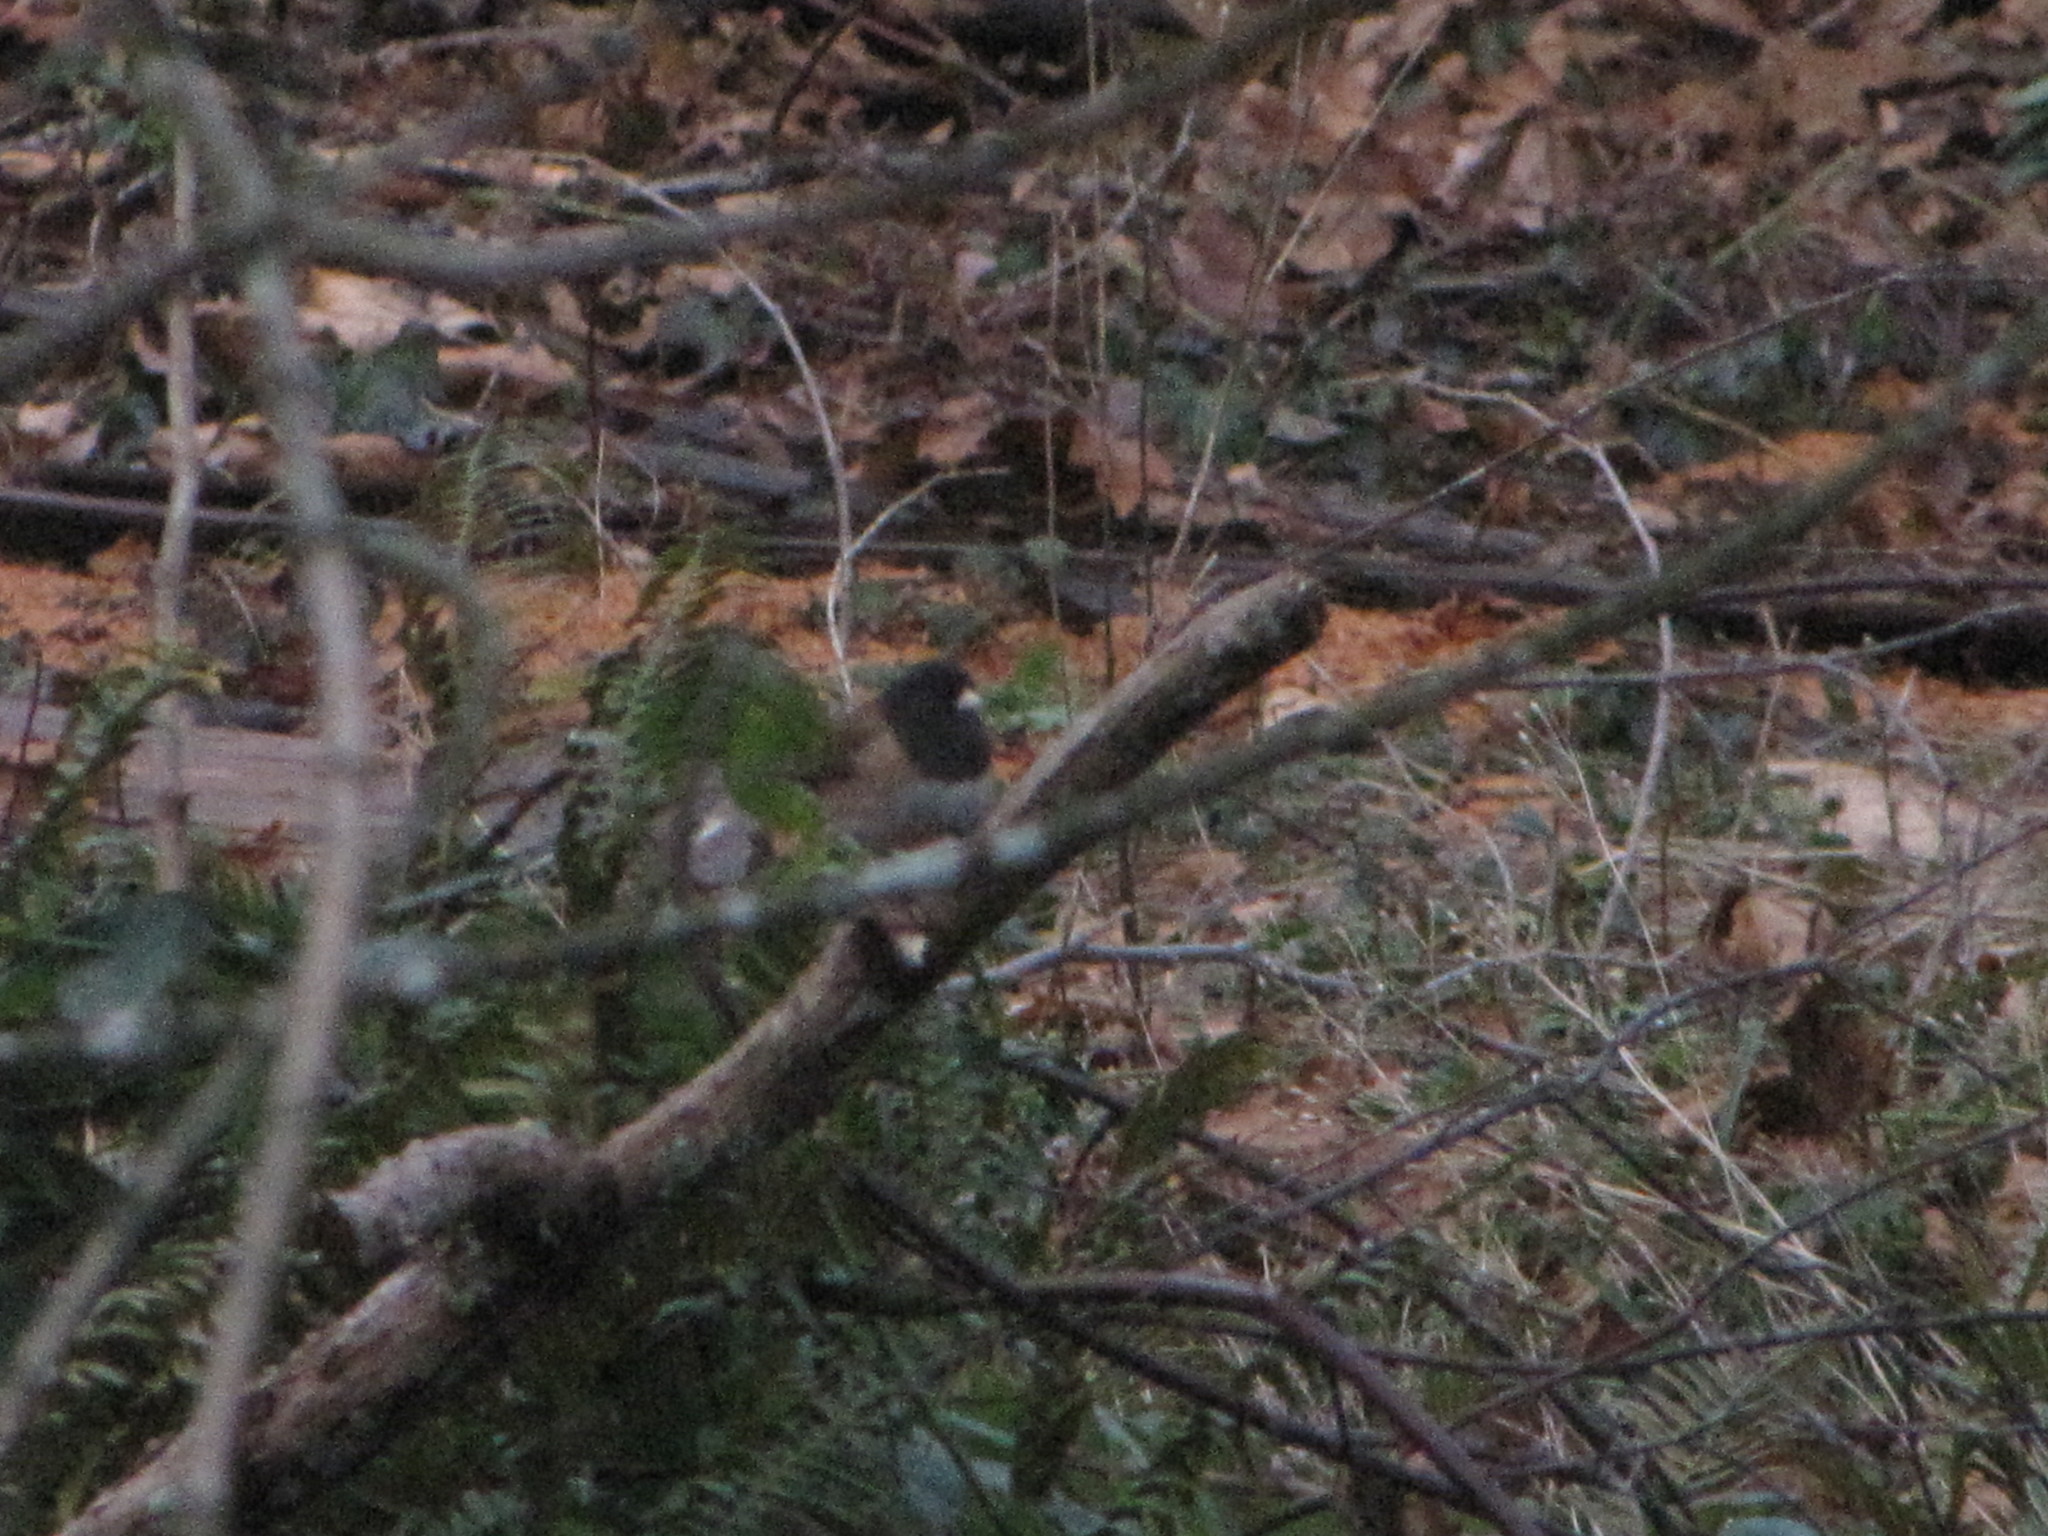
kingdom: Animalia
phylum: Chordata
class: Aves
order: Passeriformes
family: Passerellidae
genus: Junco
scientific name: Junco hyemalis
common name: Dark-eyed junco
